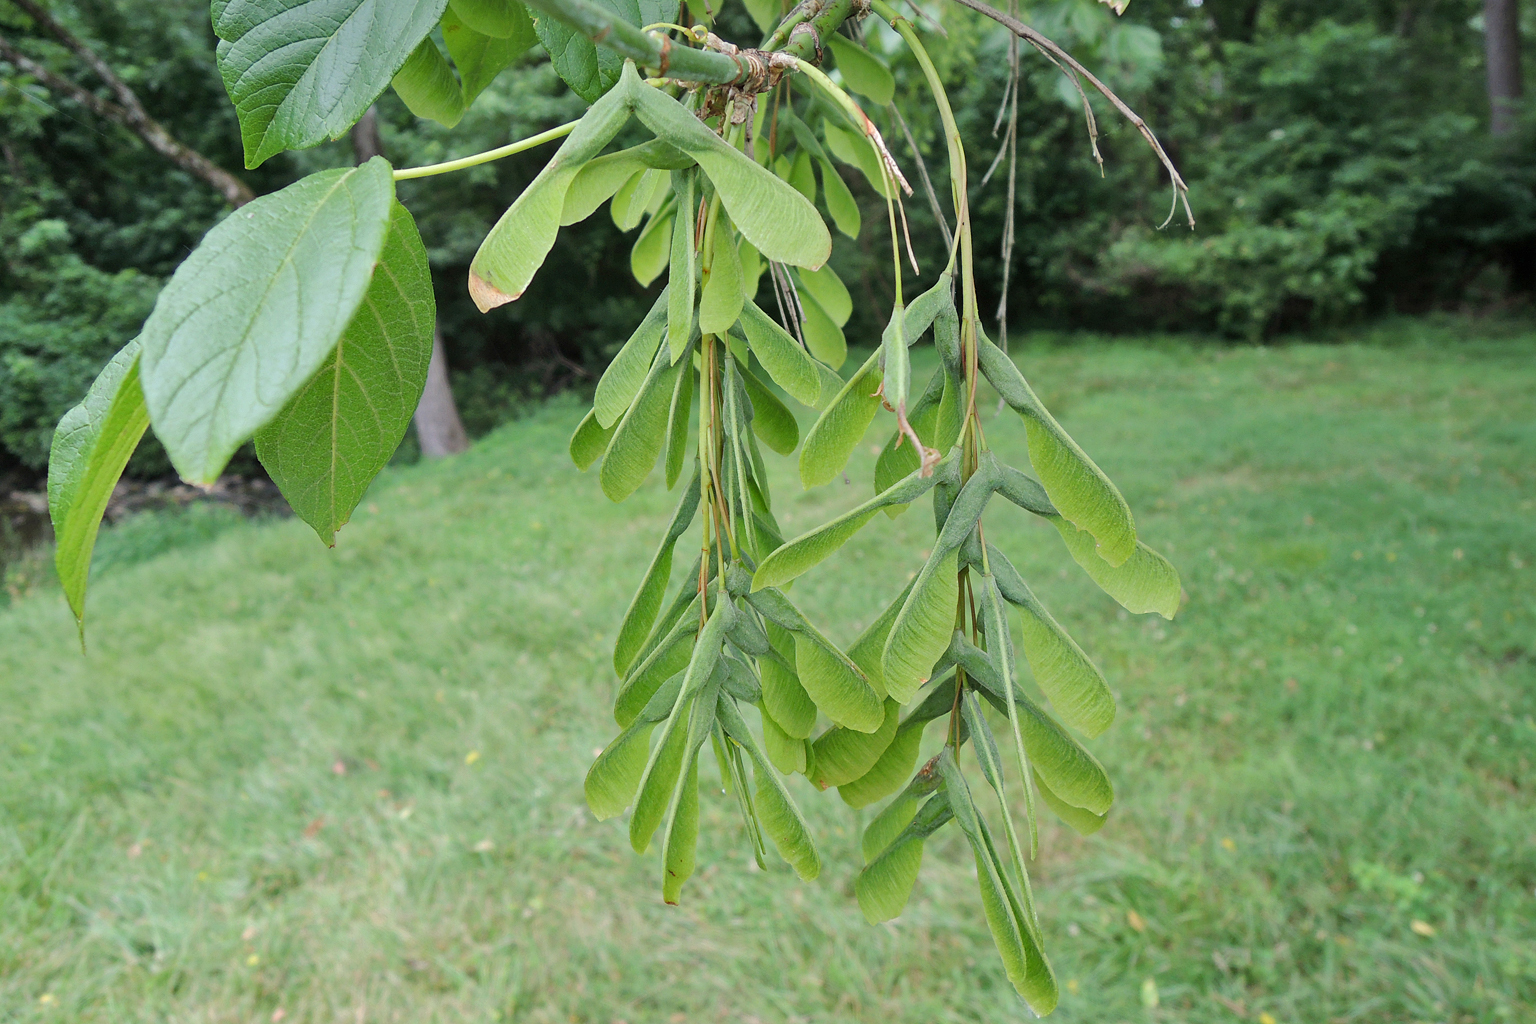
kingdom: Plantae
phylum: Tracheophyta
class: Magnoliopsida
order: Sapindales
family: Sapindaceae
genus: Acer
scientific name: Acer negundo
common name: Ashleaf maple
